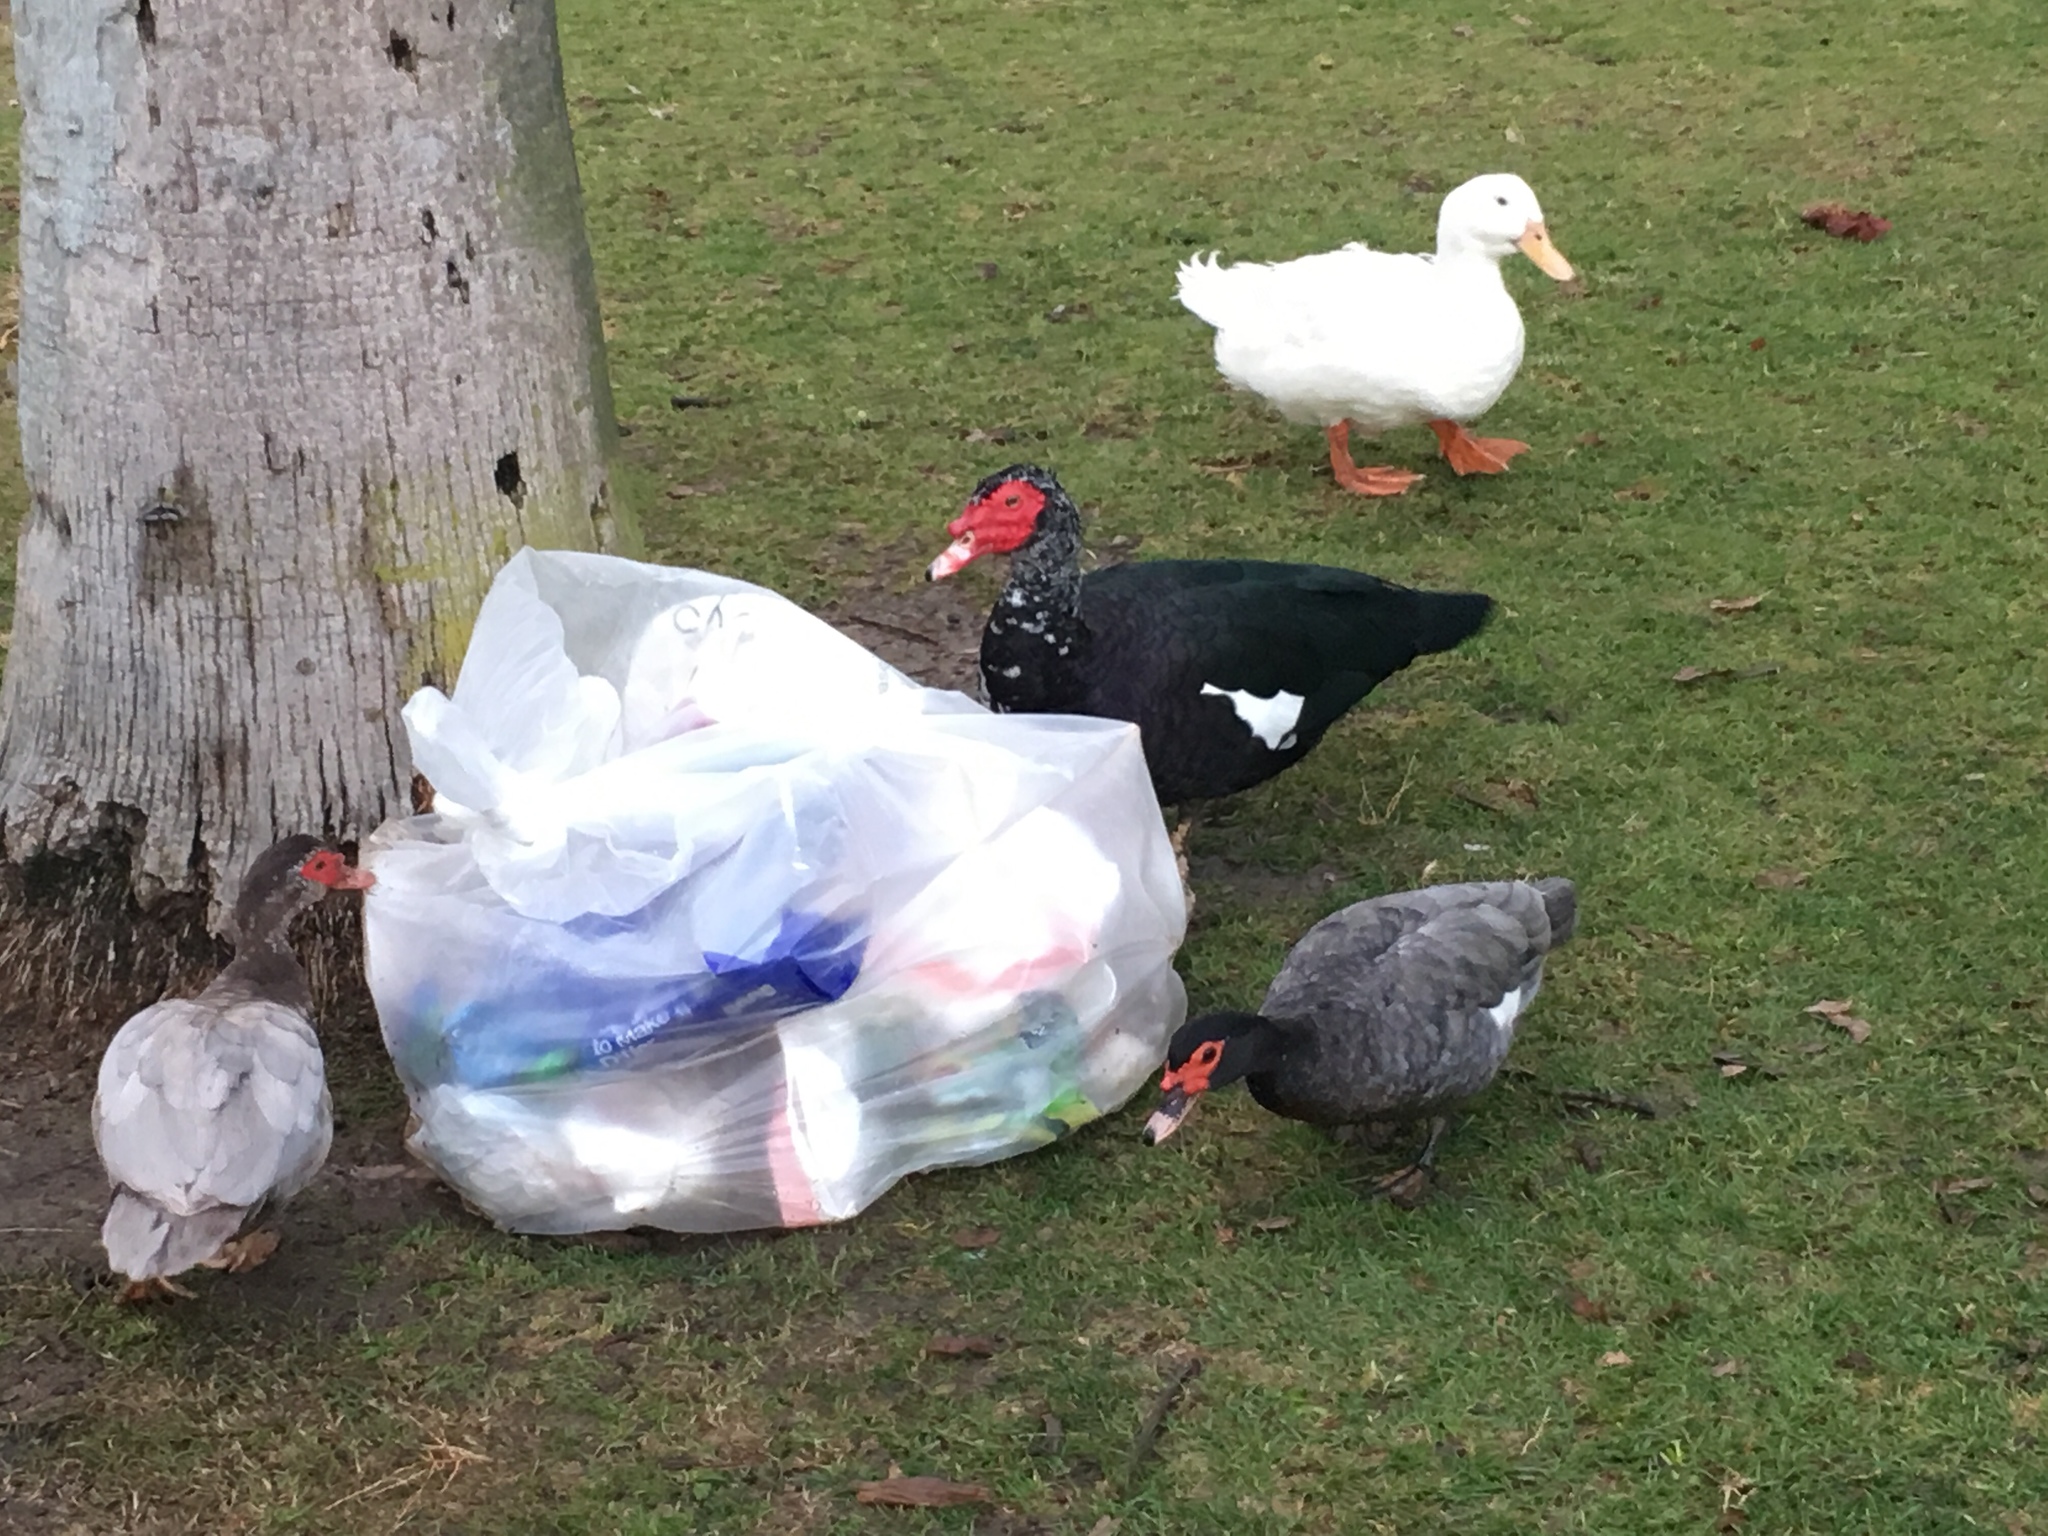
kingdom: Animalia
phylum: Chordata
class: Aves
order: Anseriformes
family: Anatidae
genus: Anas
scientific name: Anas platyrhynchos
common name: Mallard
